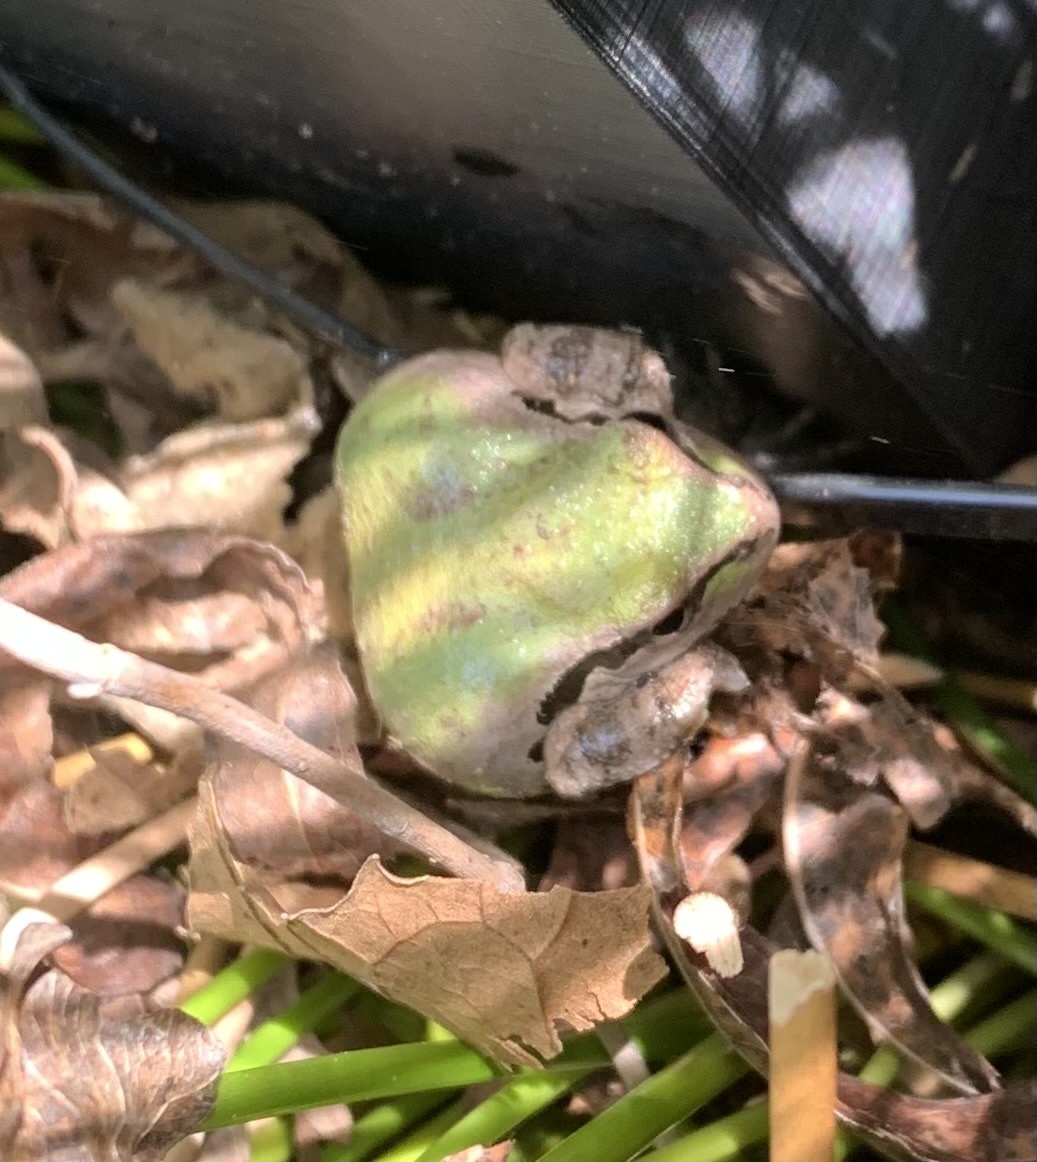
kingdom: Animalia
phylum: Chordata
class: Amphibia
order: Anura
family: Hylidae
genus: Pseudacris
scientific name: Pseudacris regilla
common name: Pacific chorus frog
